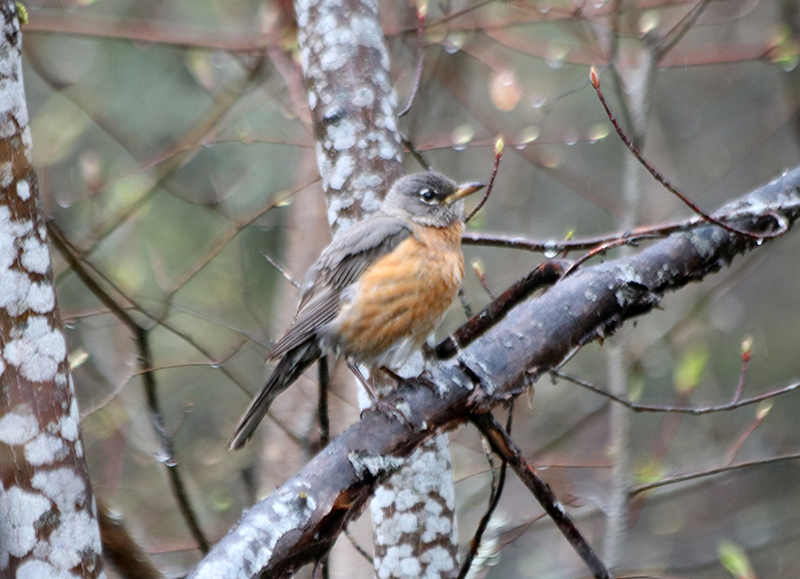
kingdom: Animalia
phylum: Chordata
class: Aves
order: Passeriformes
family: Turdidae
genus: Turdus
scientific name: Turdus migratorius
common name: American robin
